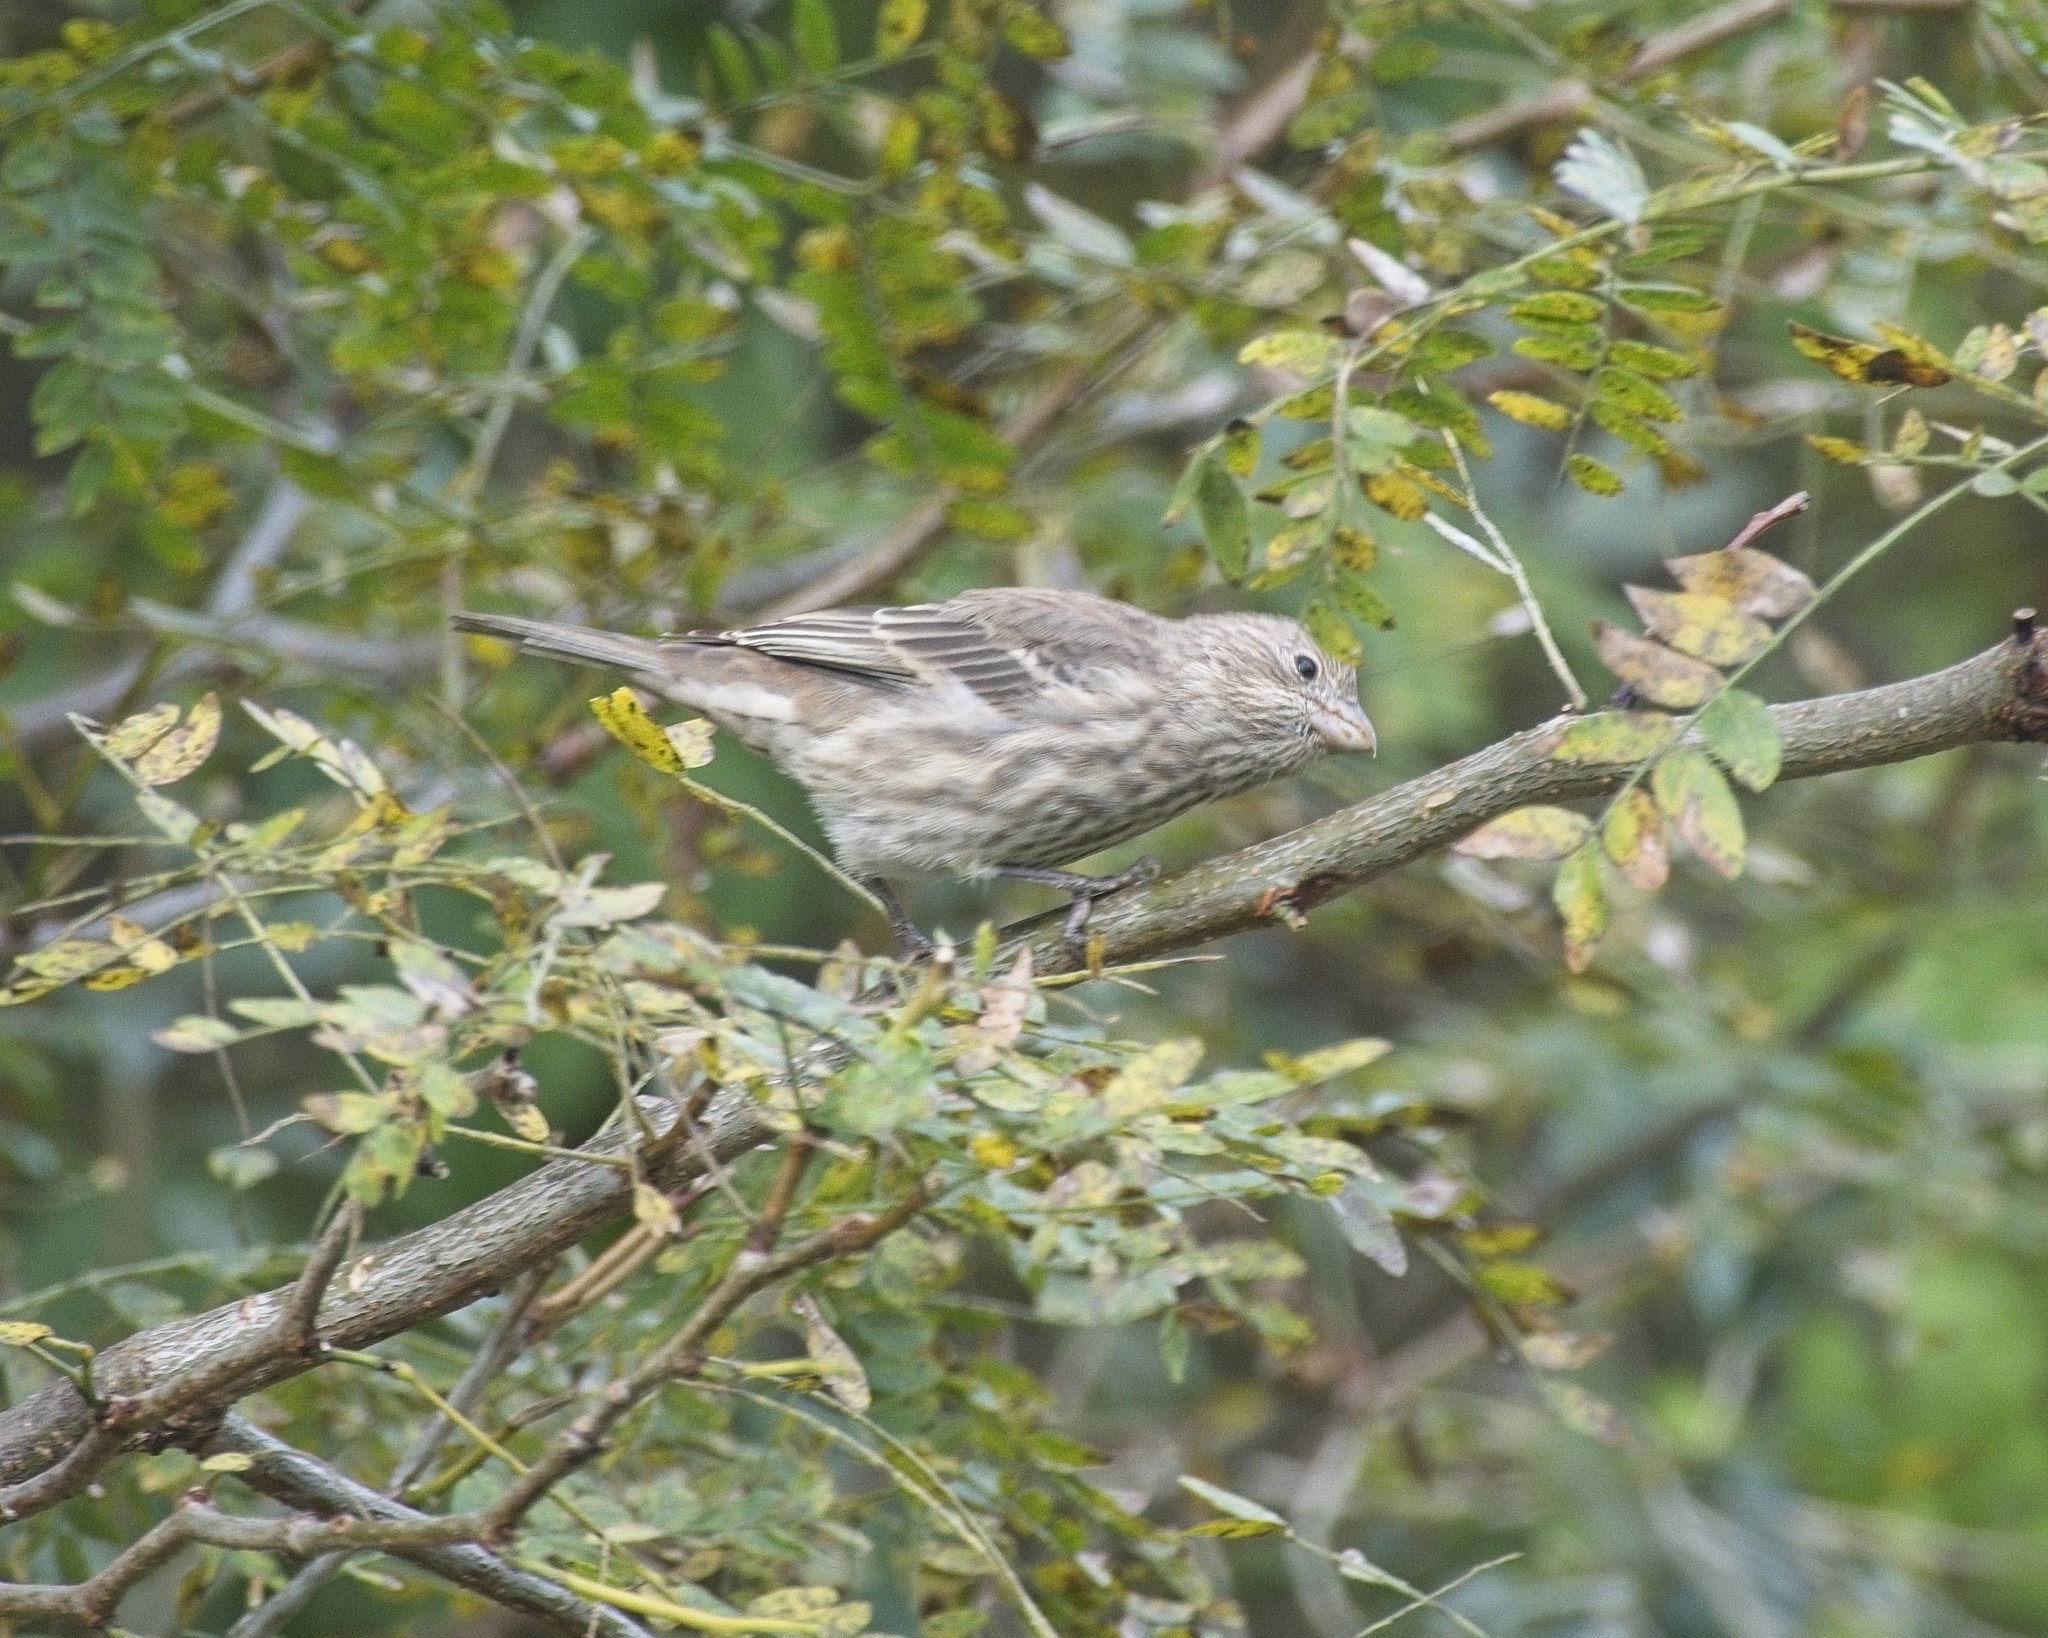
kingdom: Animalia
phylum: Chordata
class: Aves
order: Passeriformes
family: Fringillidae
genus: Haemorhous
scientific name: Haemorhous mexicanus
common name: House finch
